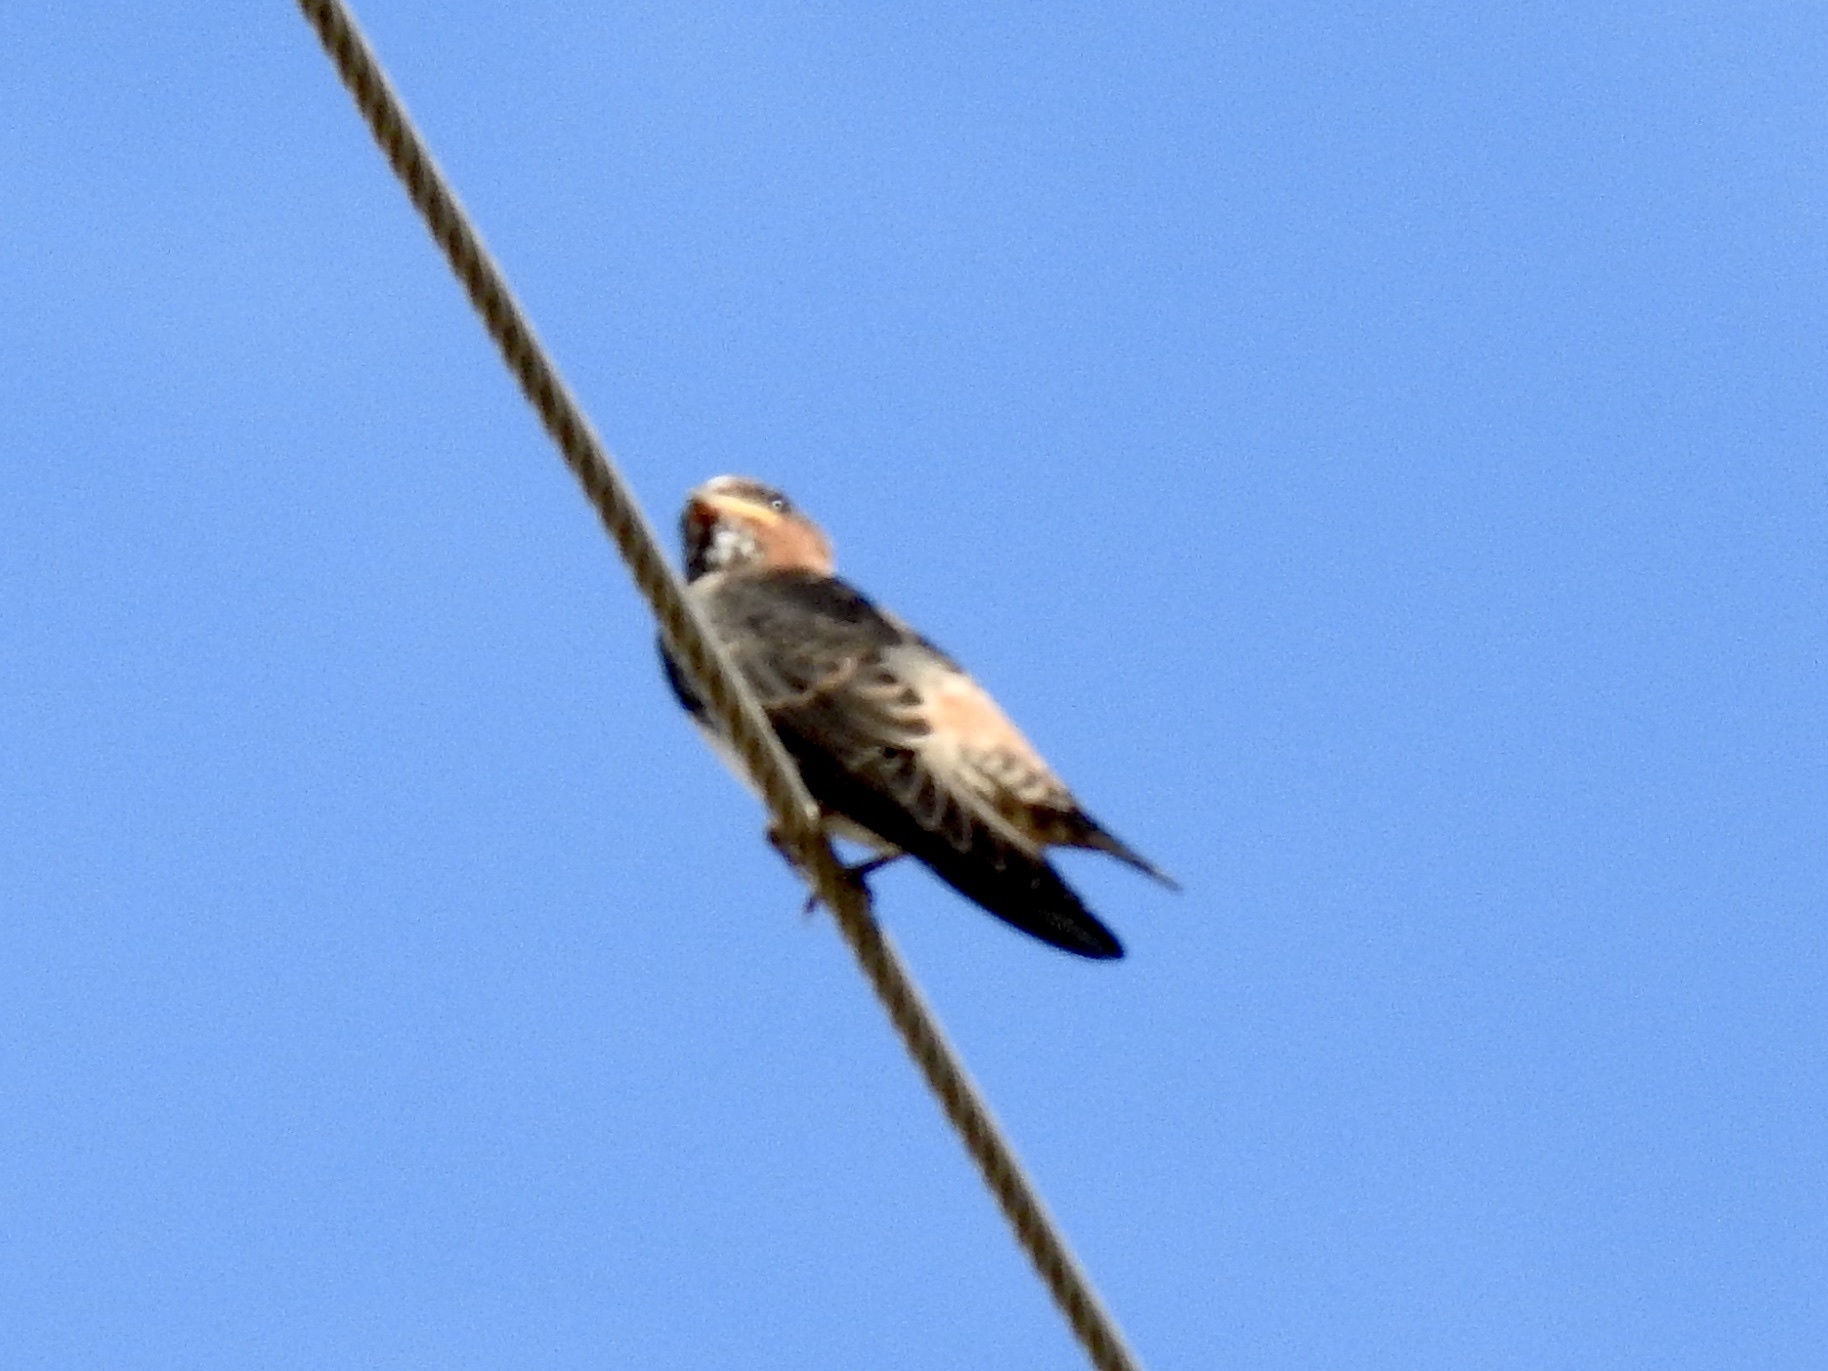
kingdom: Animalia
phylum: Chordata
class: Aves
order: Passeriformes
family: Hirundinidae
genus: Petrochelidon
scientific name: Petrochelidon pyrrhonota
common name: American cliff swallow
